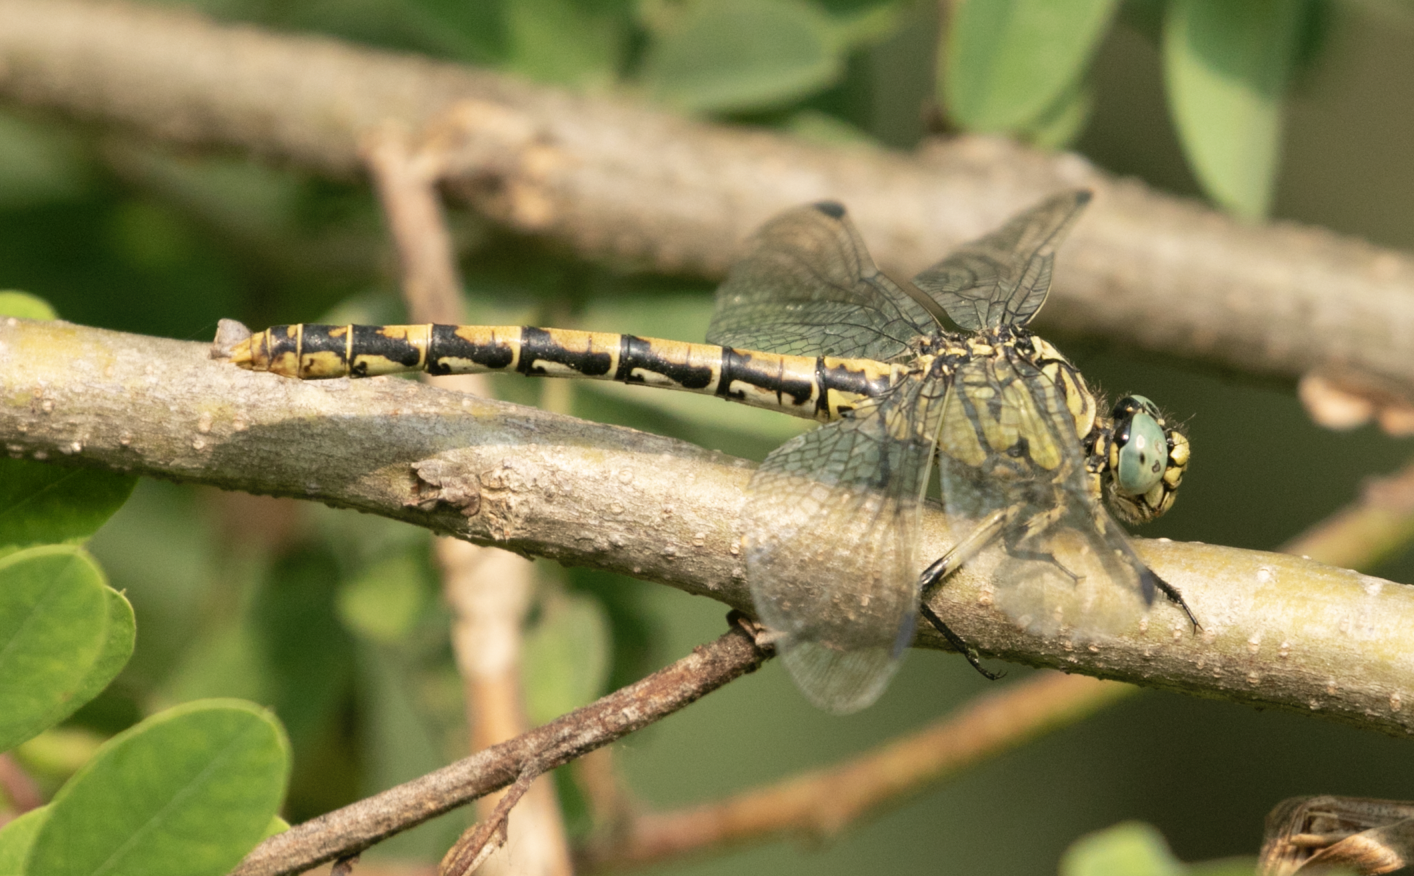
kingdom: Animalia
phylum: Arthropoda
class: Insecta
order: Odonata
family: Gomphidae
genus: Onychogomphus
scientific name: Onychogomphus forcipatus
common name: Small pincertail
